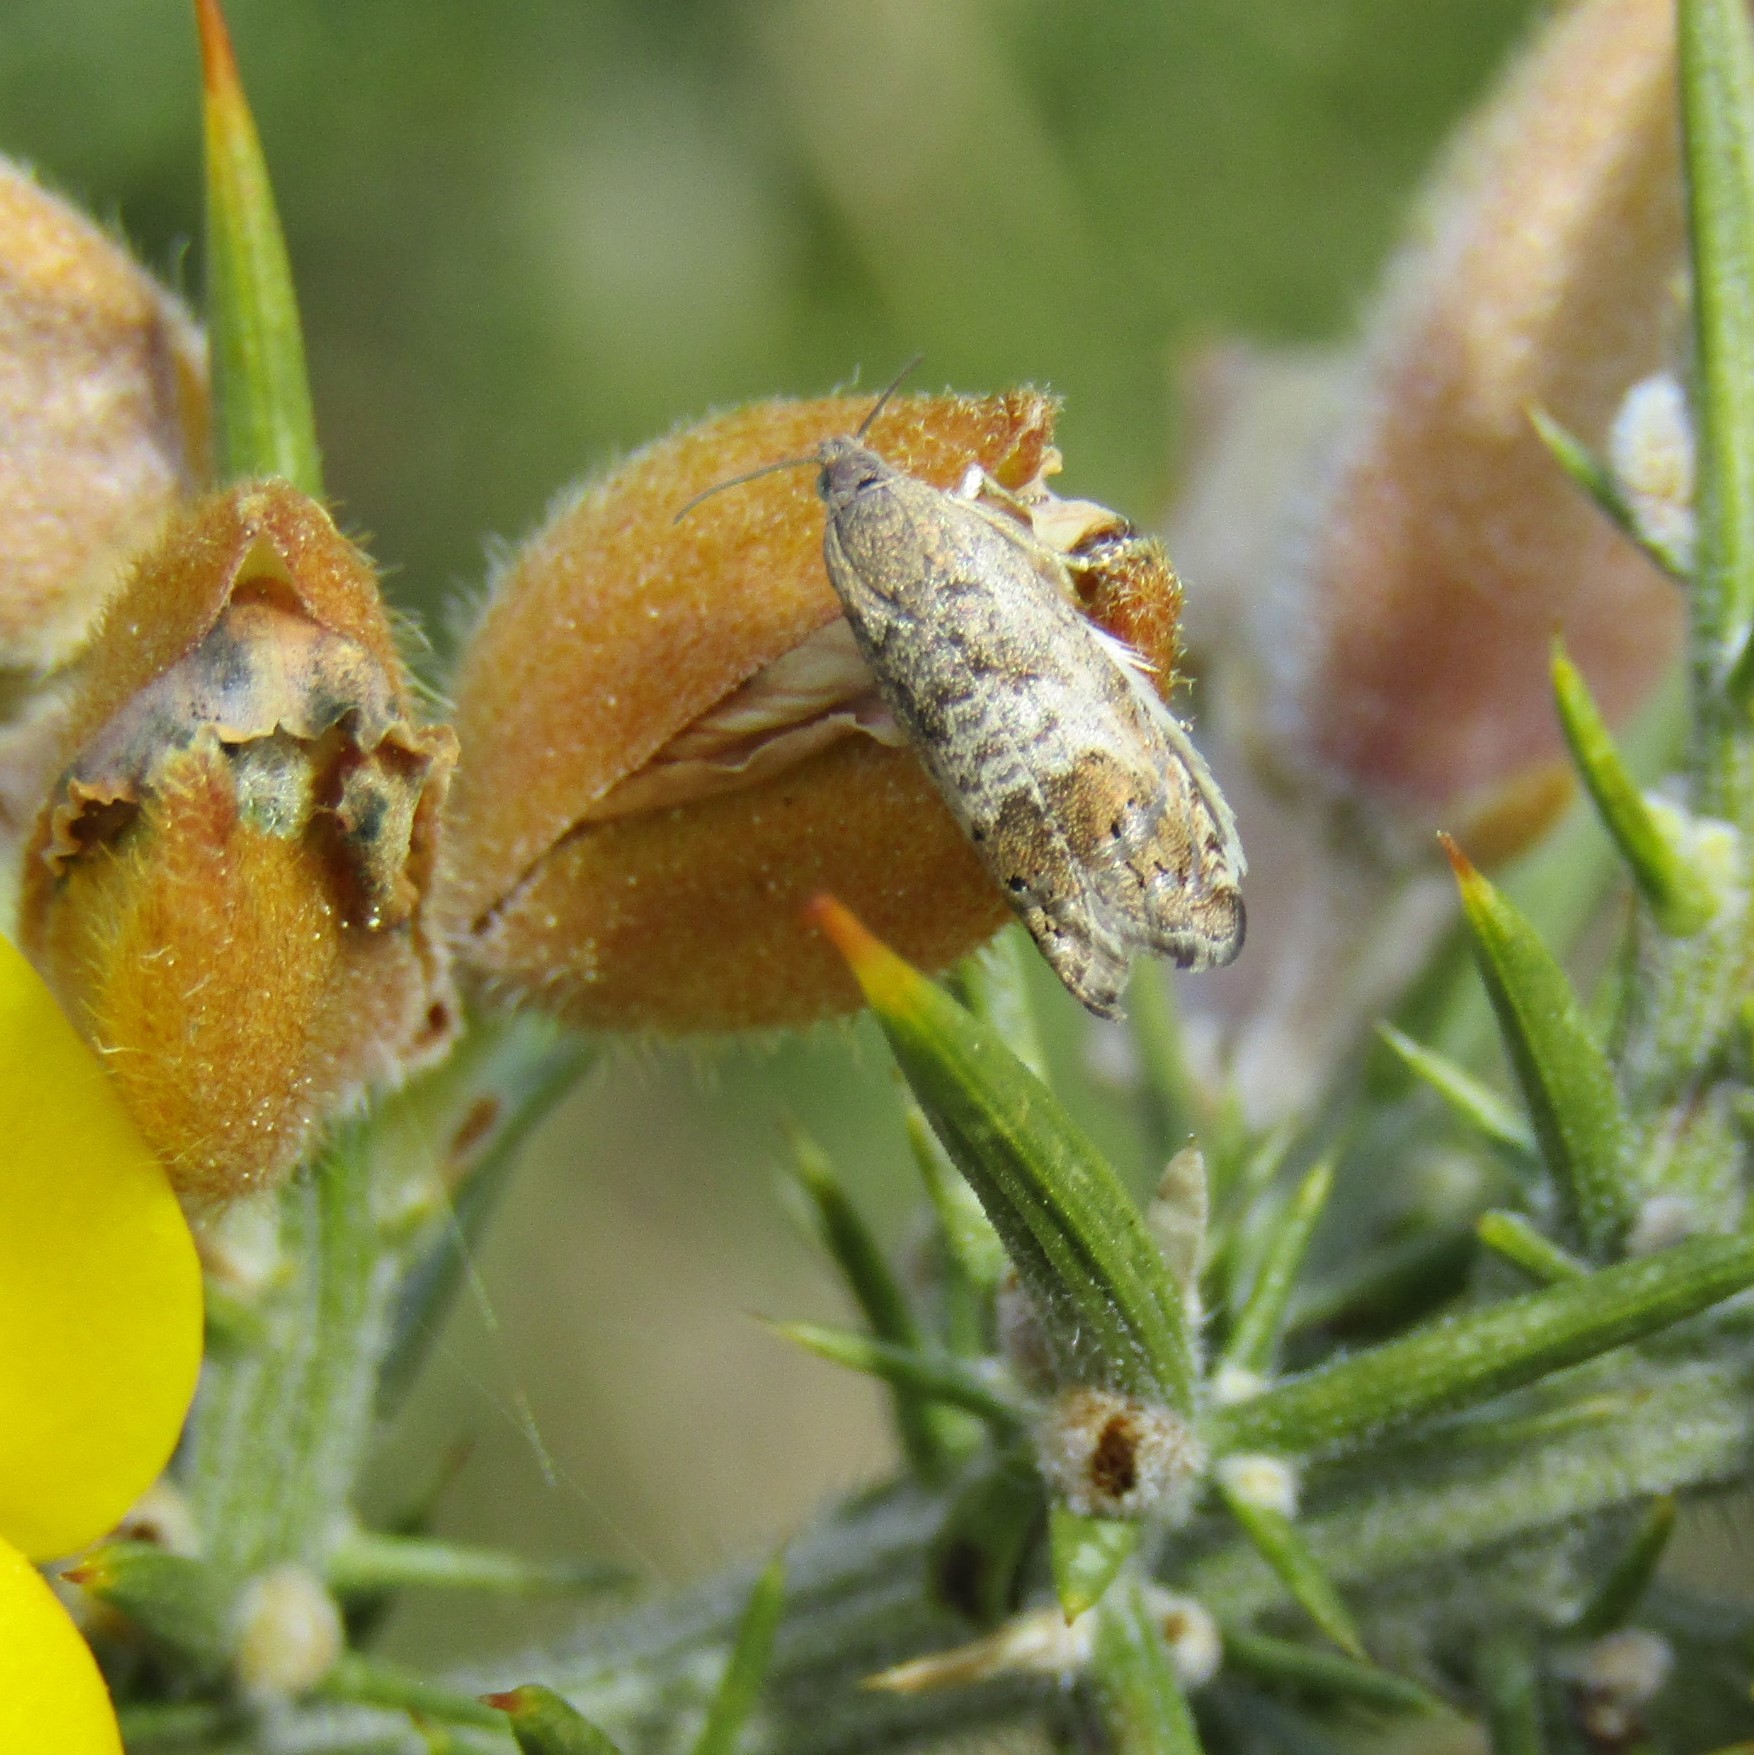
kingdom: Animalia
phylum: Arthropoda
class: Insecta
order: Lepidoptera
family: Tortricidae
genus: Cydia
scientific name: Cydia succedana
